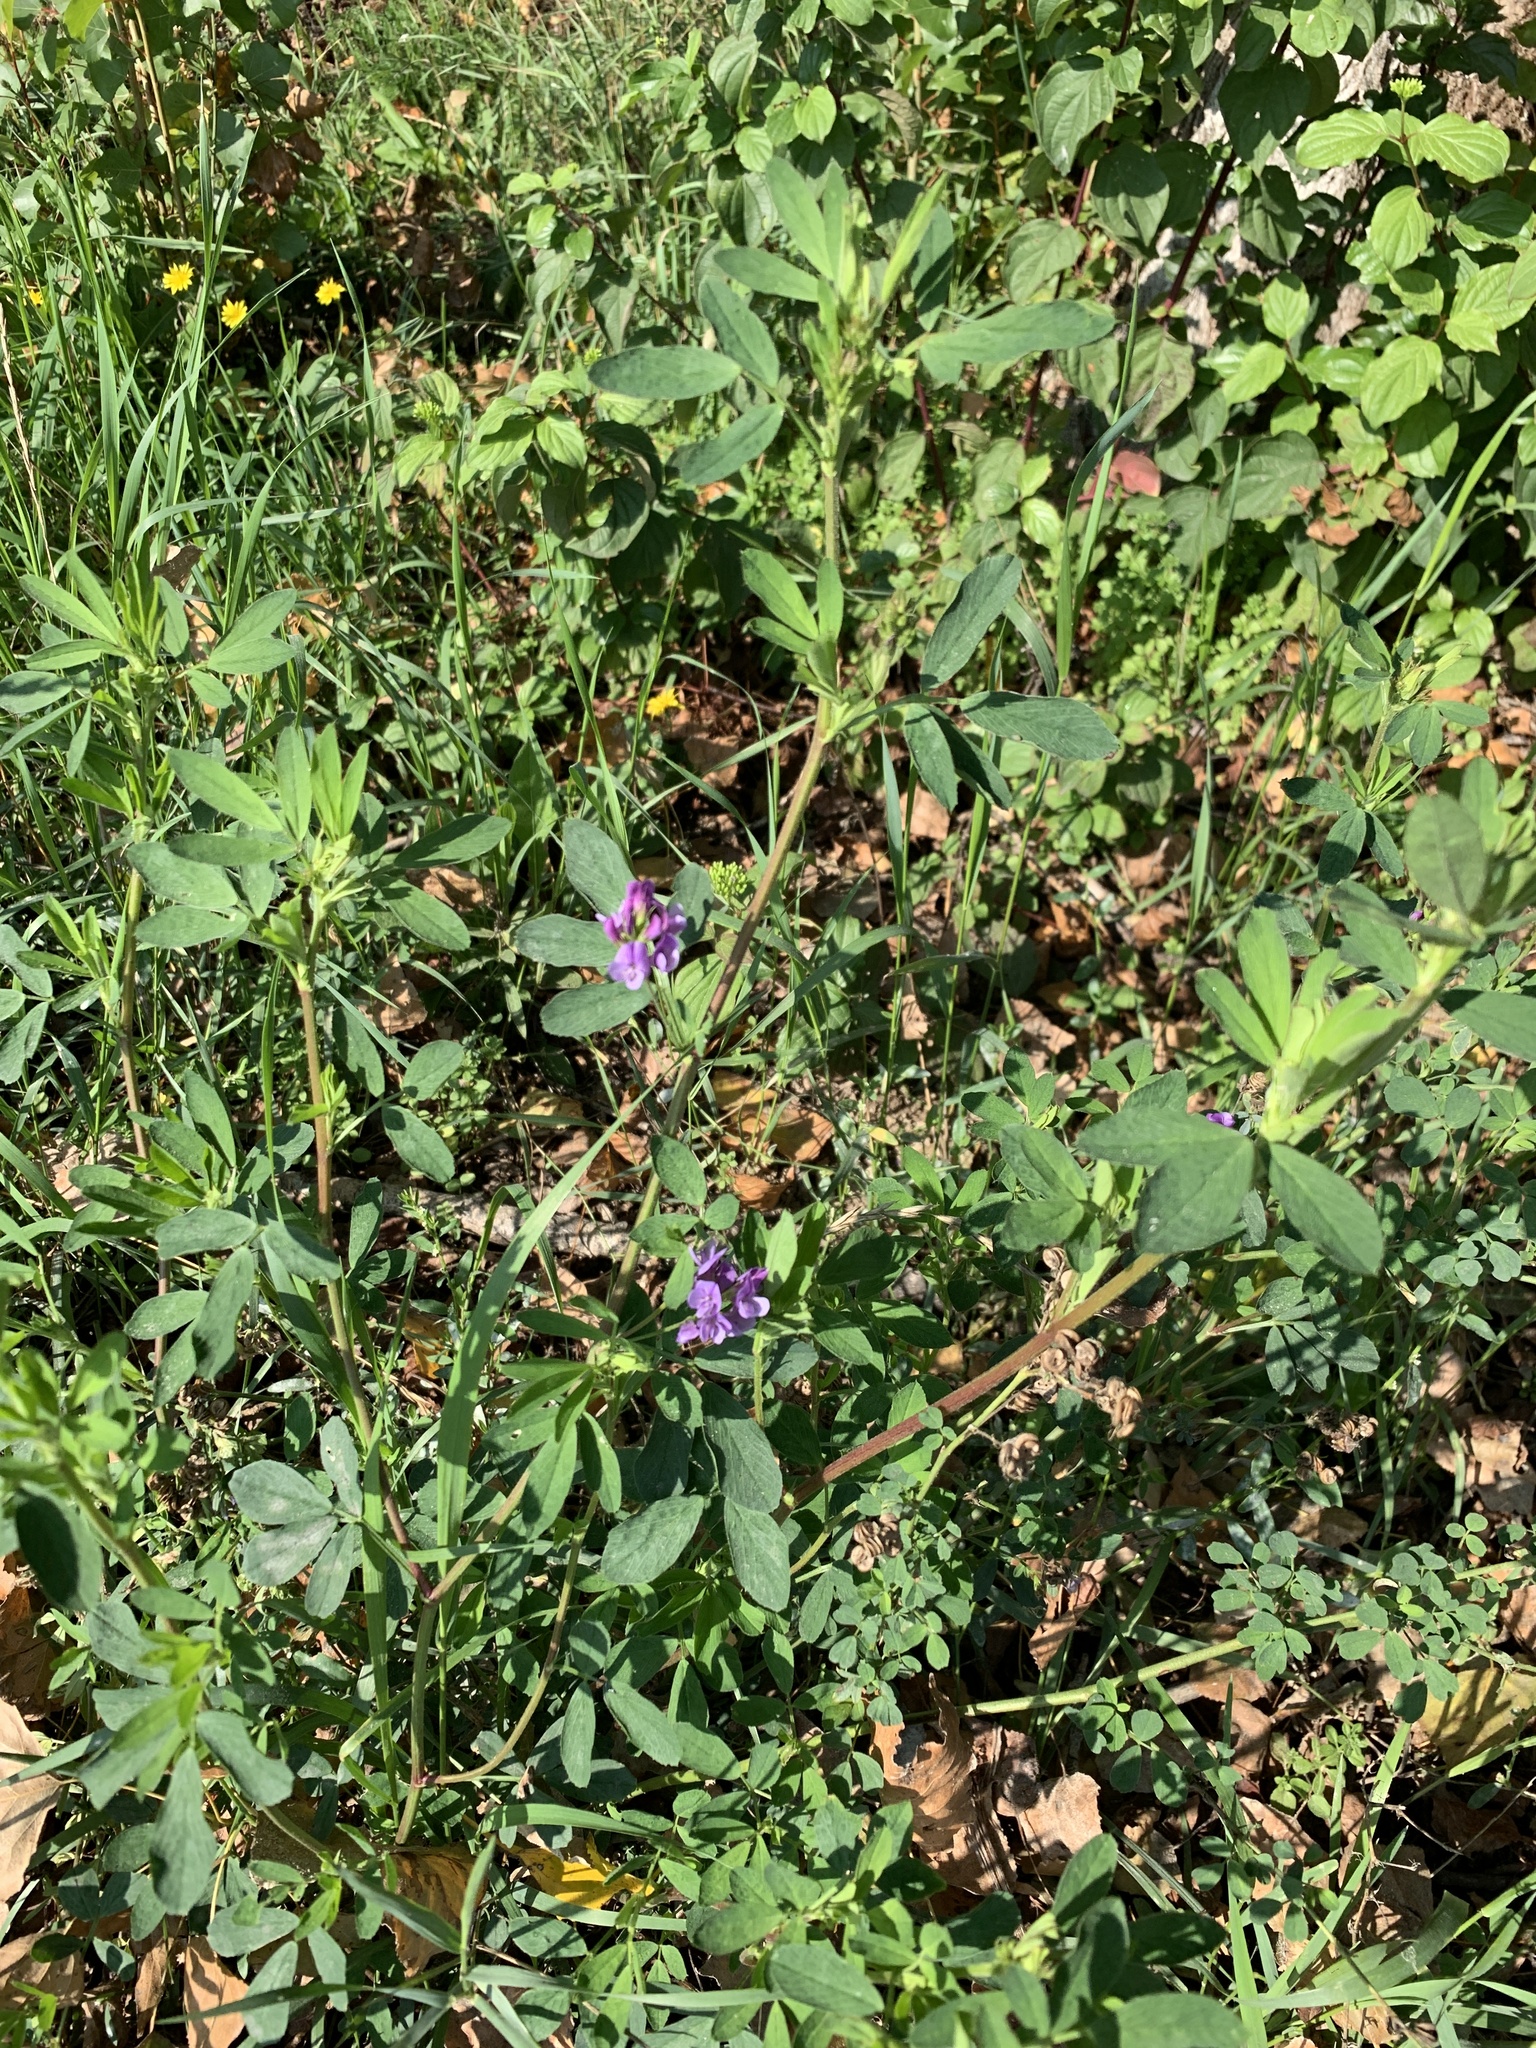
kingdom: Plantae
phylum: Tracheophyta
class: Magnoliopsida
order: Fabales
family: Fabaceae
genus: Medicago
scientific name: Medicago sativa
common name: Alfalfa
